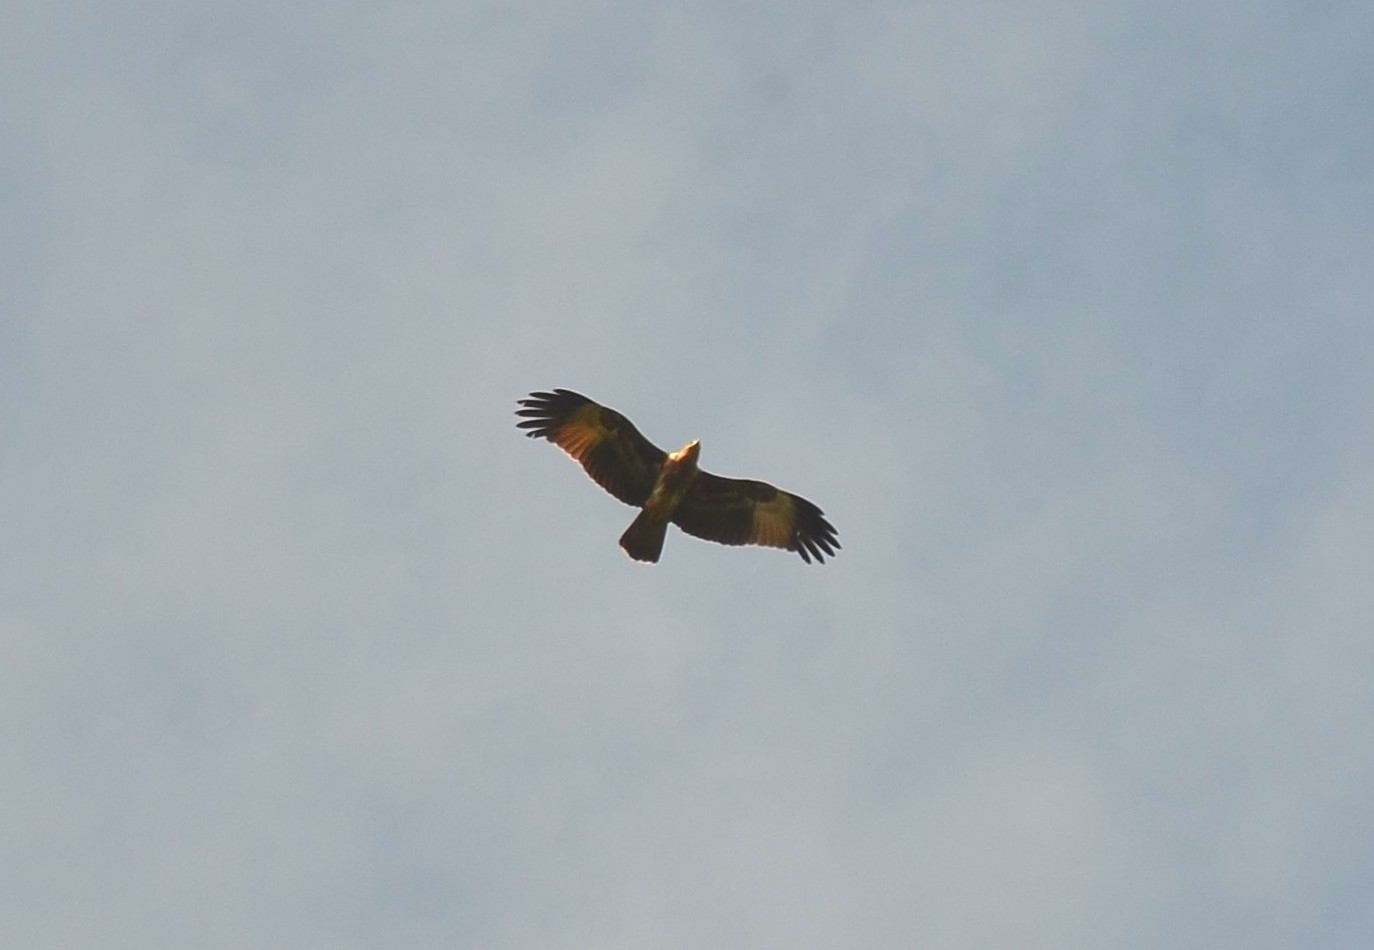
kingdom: Animalia
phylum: Chordata
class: Aves
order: Accipitriformes
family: Accipitridae
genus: Haliastur
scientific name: Haliastur indus
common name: Brahminy kite
